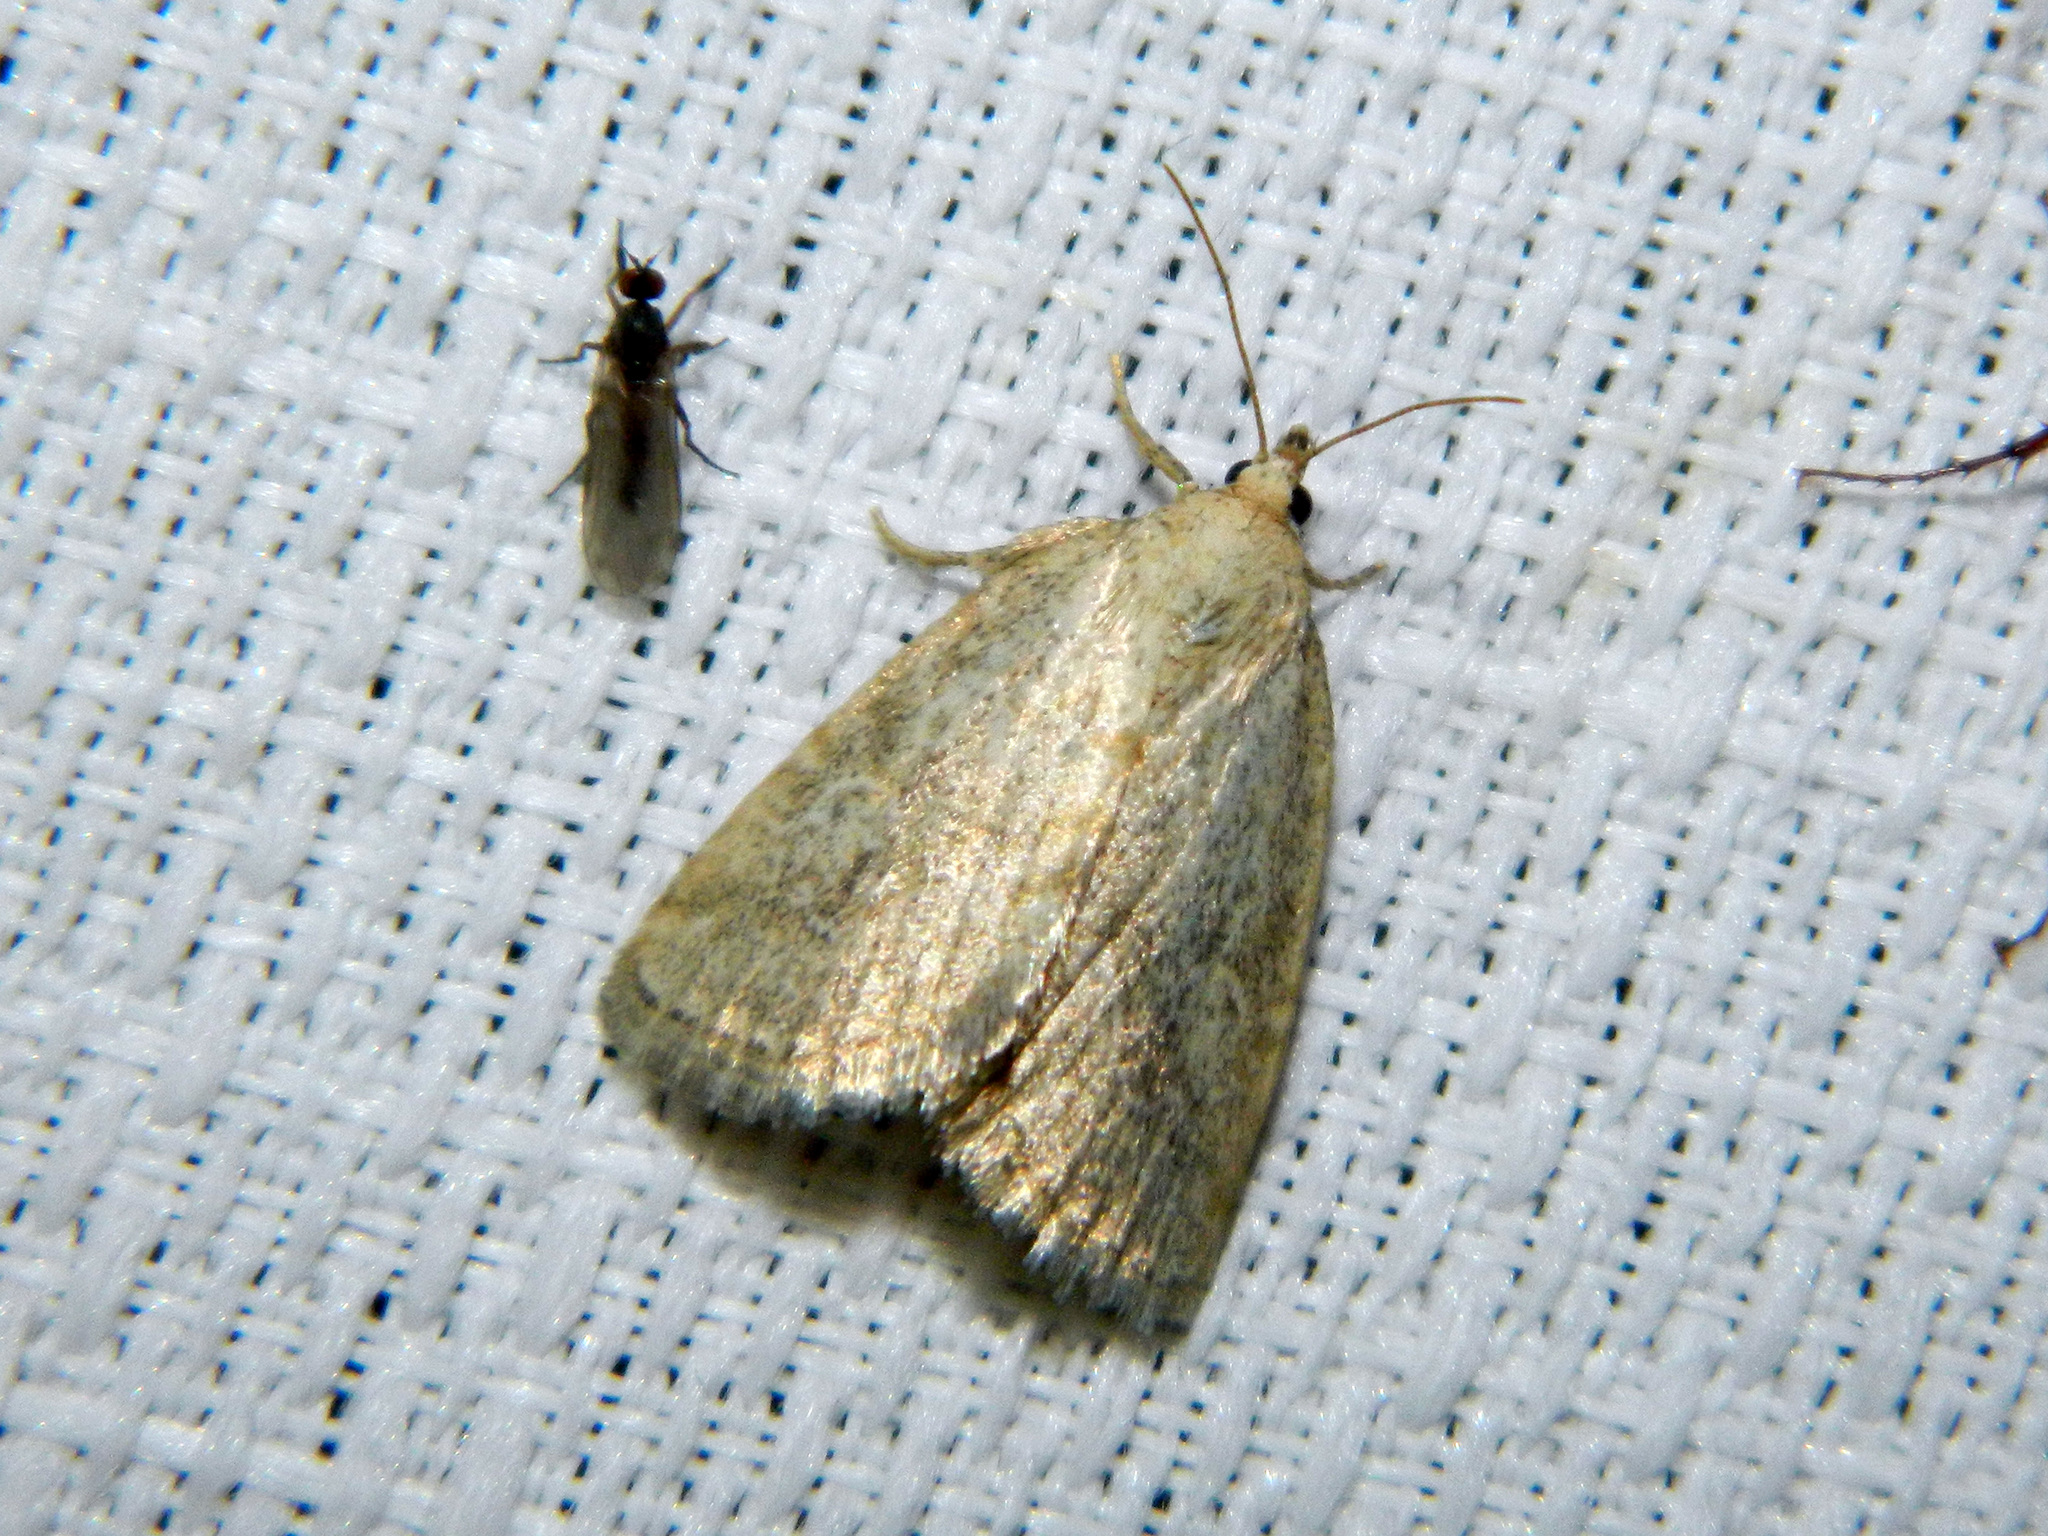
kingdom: Animalia
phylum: Arthropoda
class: Insecta
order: Lepidoptera
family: Noctuidae
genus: Protodeltote
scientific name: Protodeltote albidula
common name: Pale glyph
